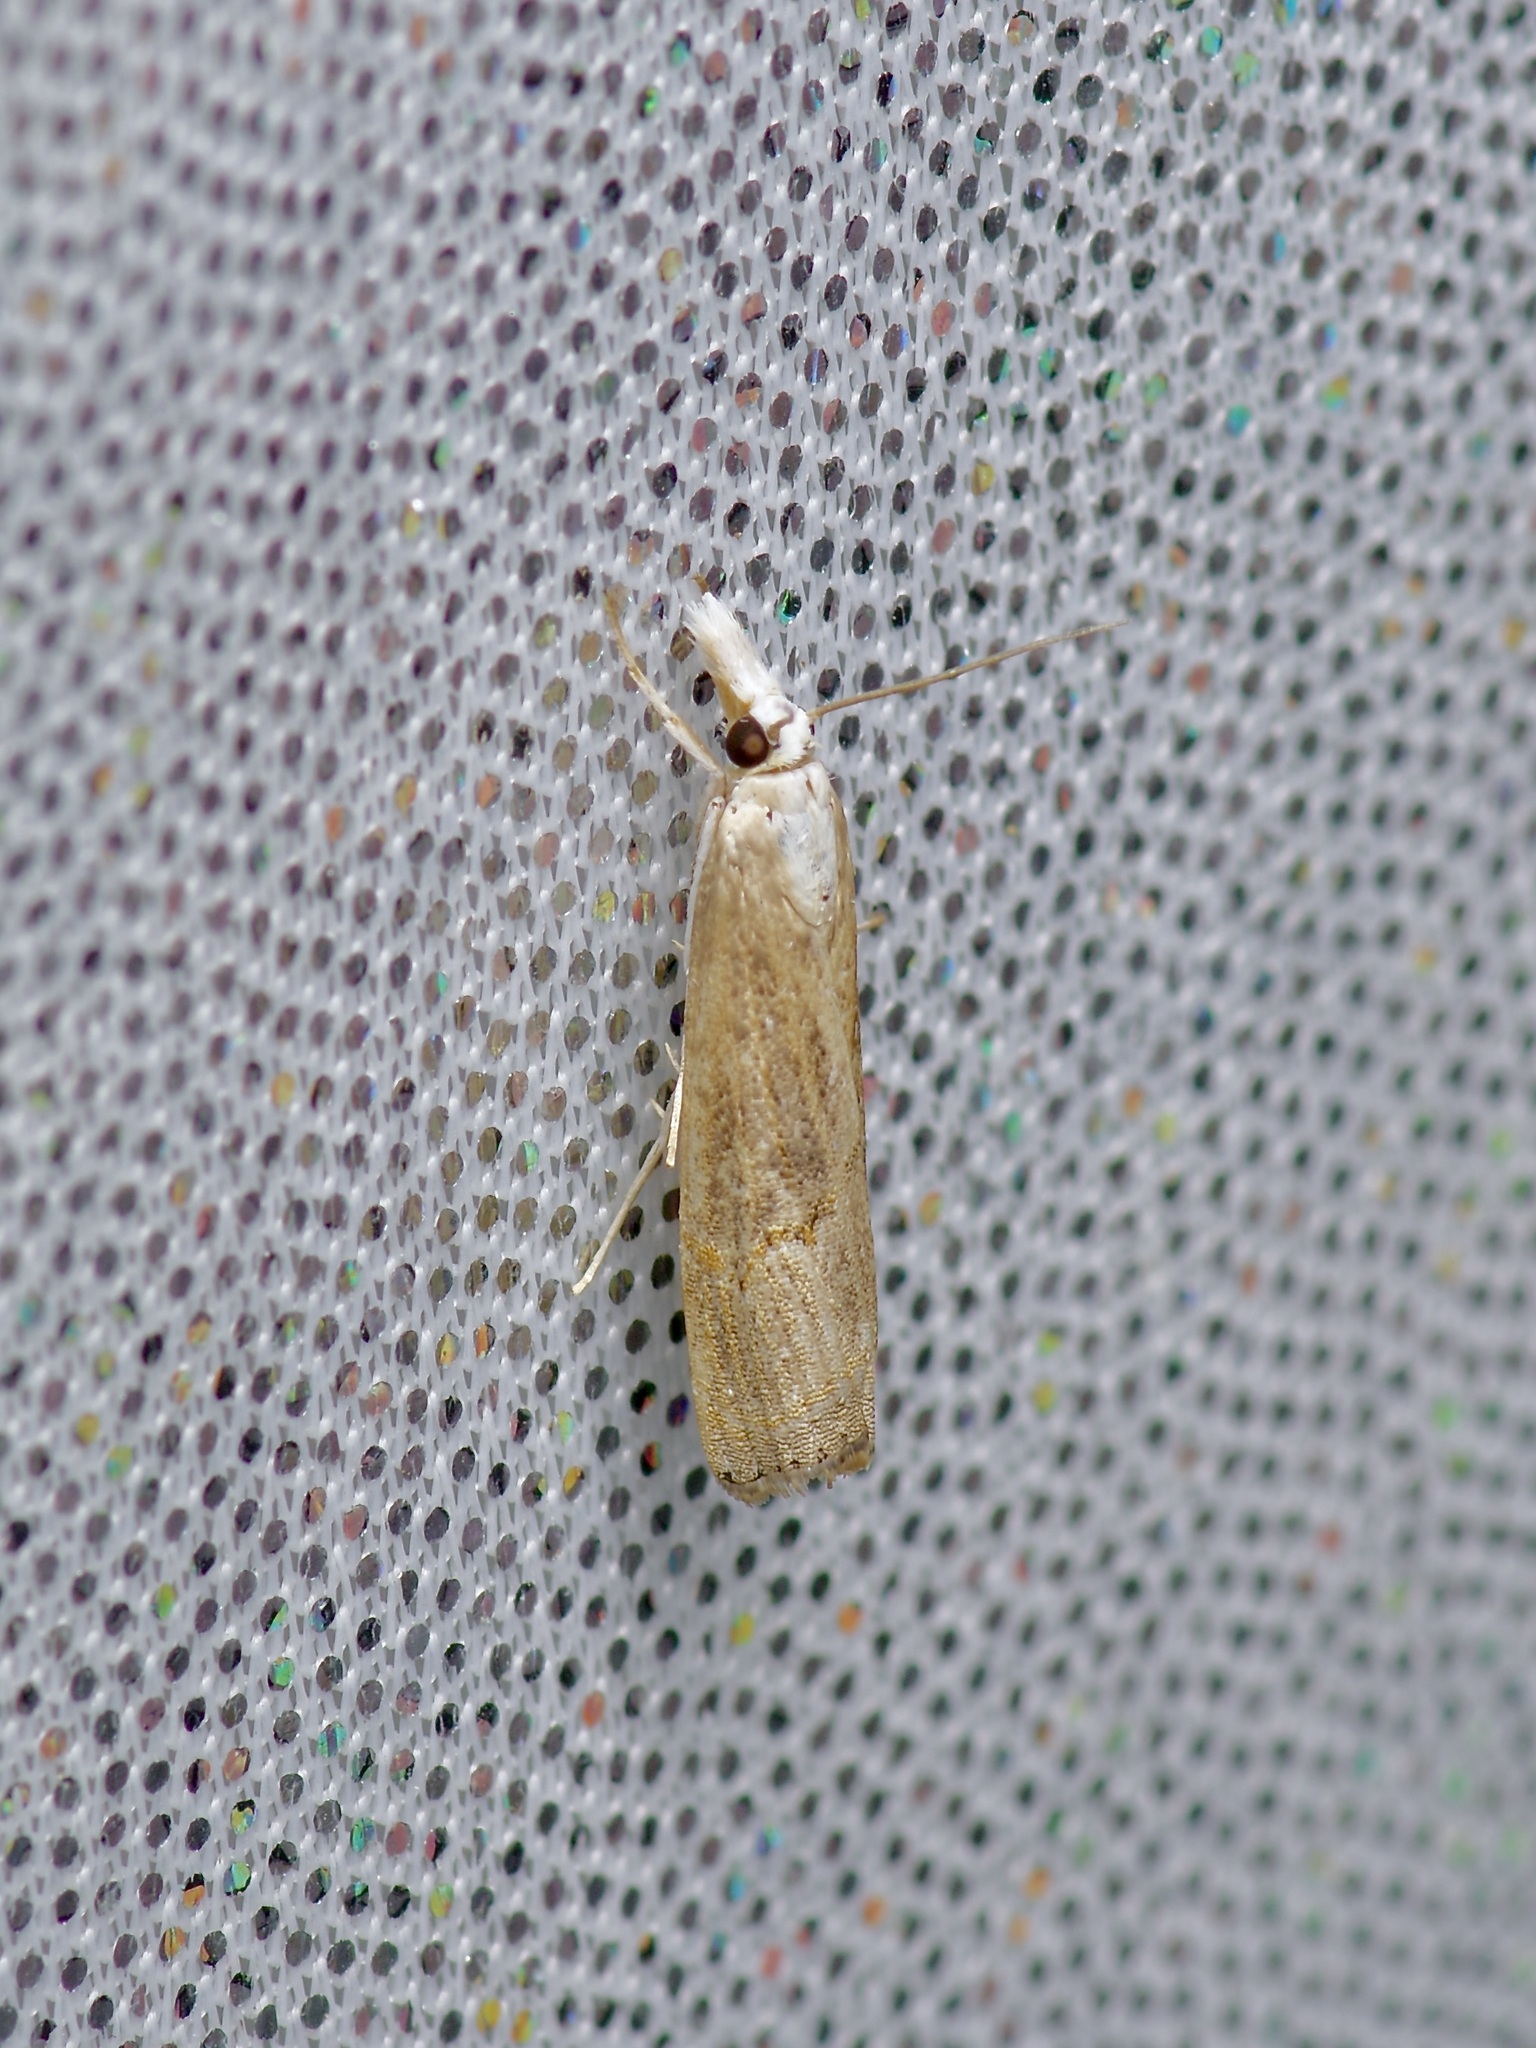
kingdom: Animalia
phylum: Arthropoda
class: Insecta
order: Lepidoptera
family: Crambidae
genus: Parapediasia
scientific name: Parapediasia teterellus
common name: Bluegrass webworm moth
